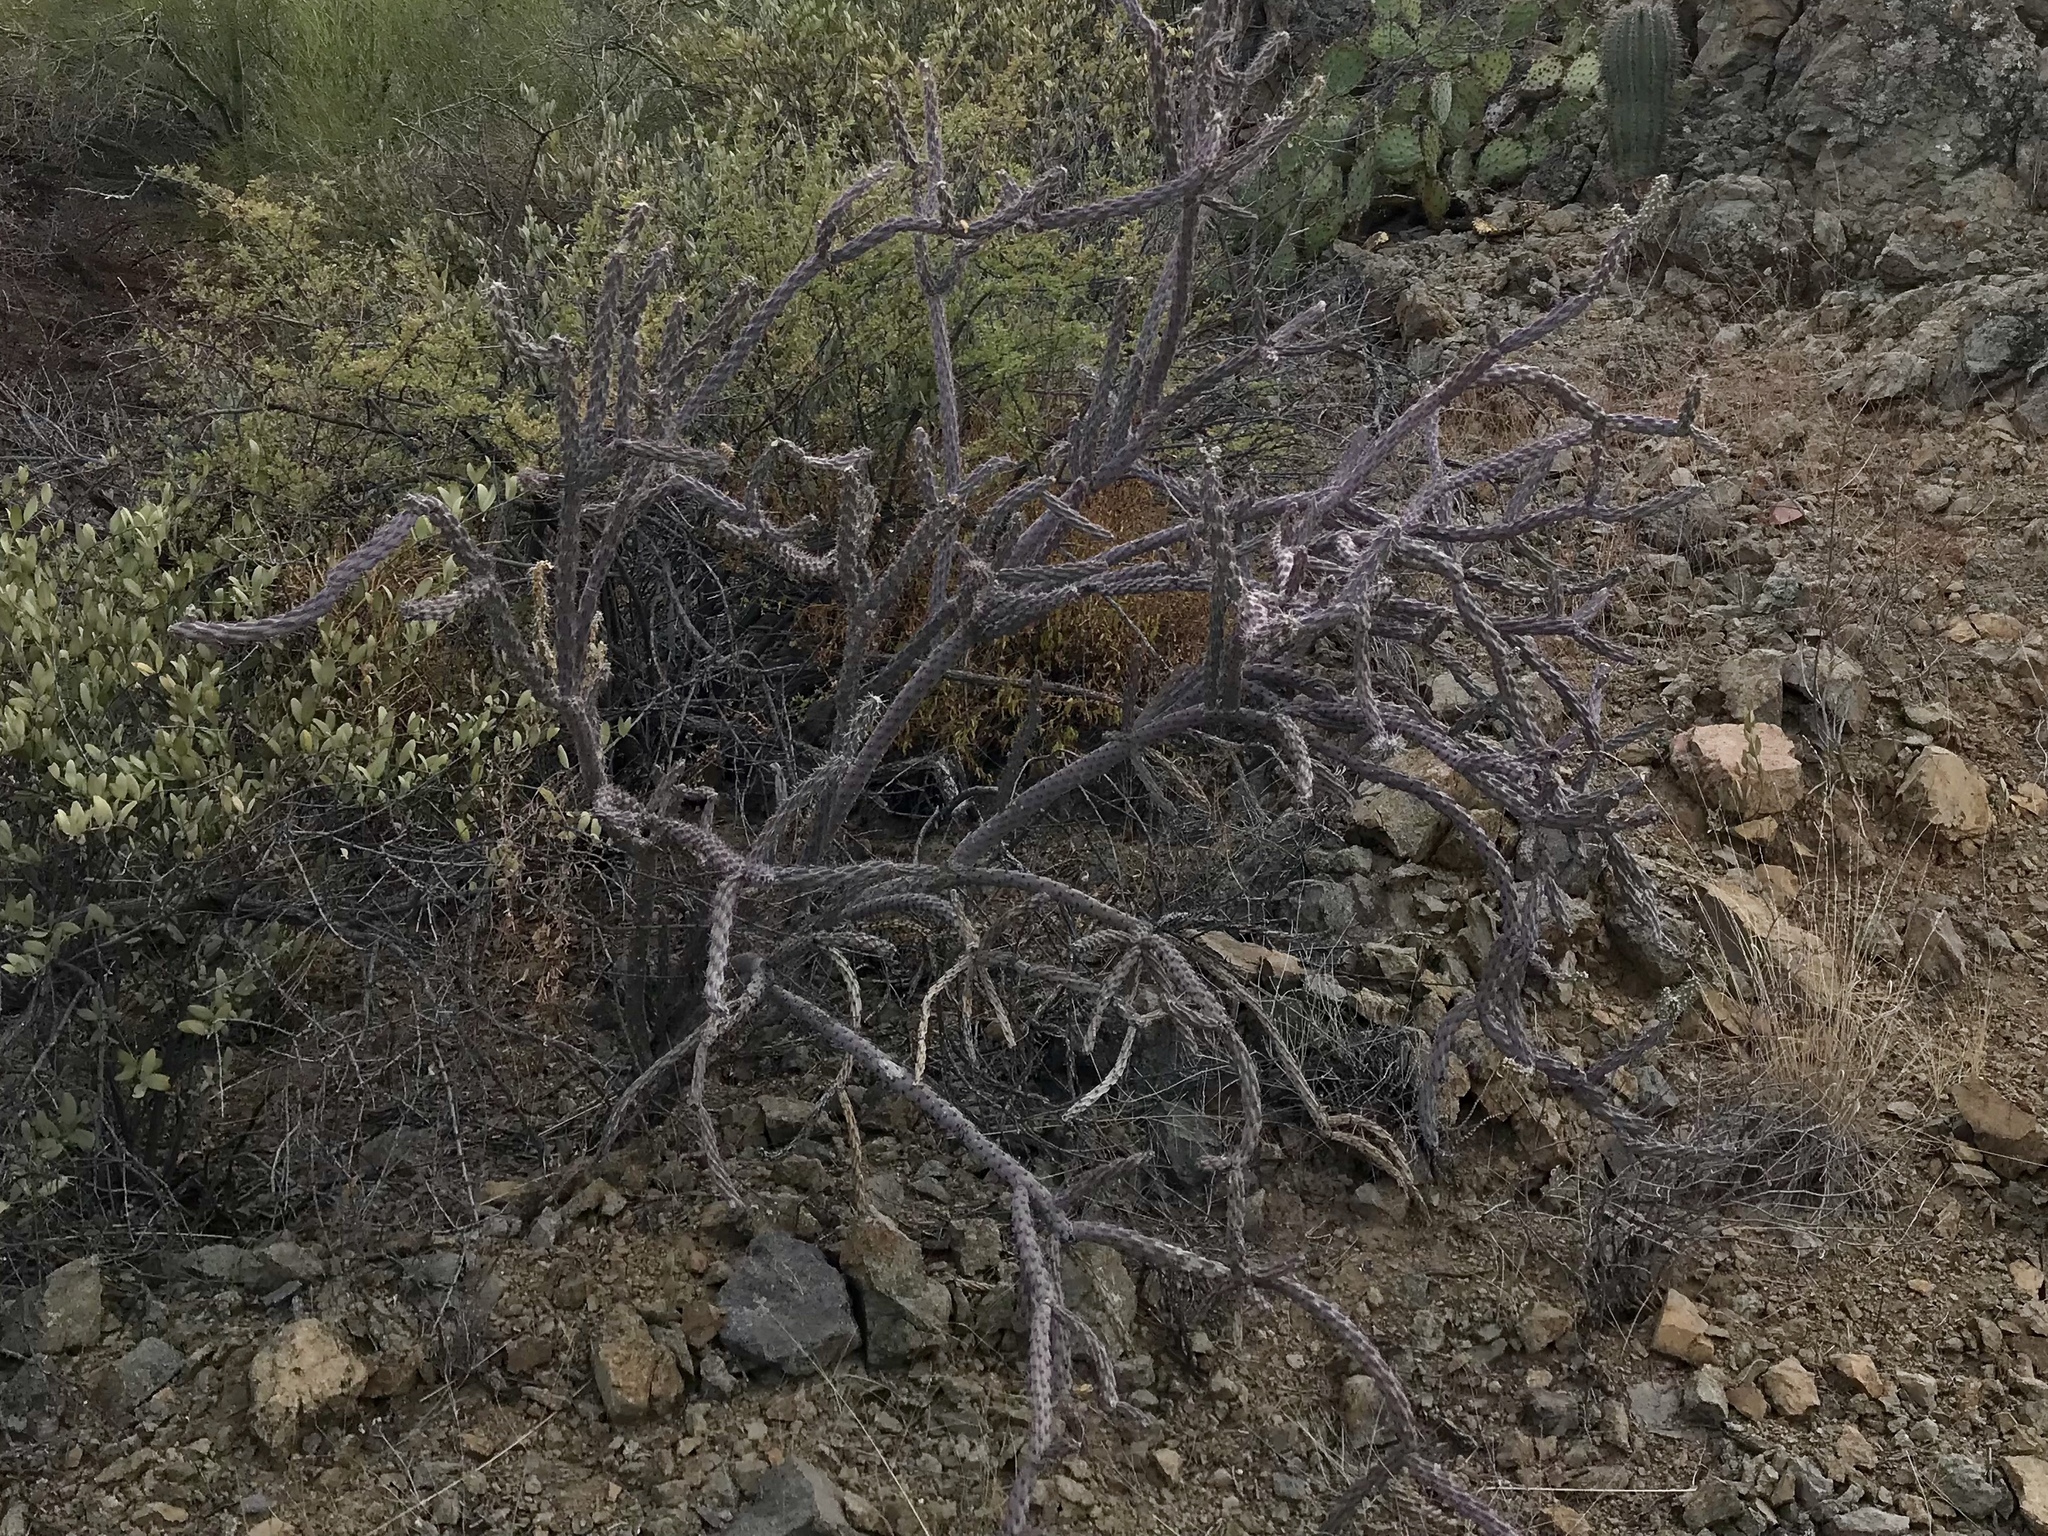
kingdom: Plantae
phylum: Tracheophyta
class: Magnoliopsida
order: Caryophyllales
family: Cactaceae
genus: Cylindropuntia
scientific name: Cylindropuntia thurberi
